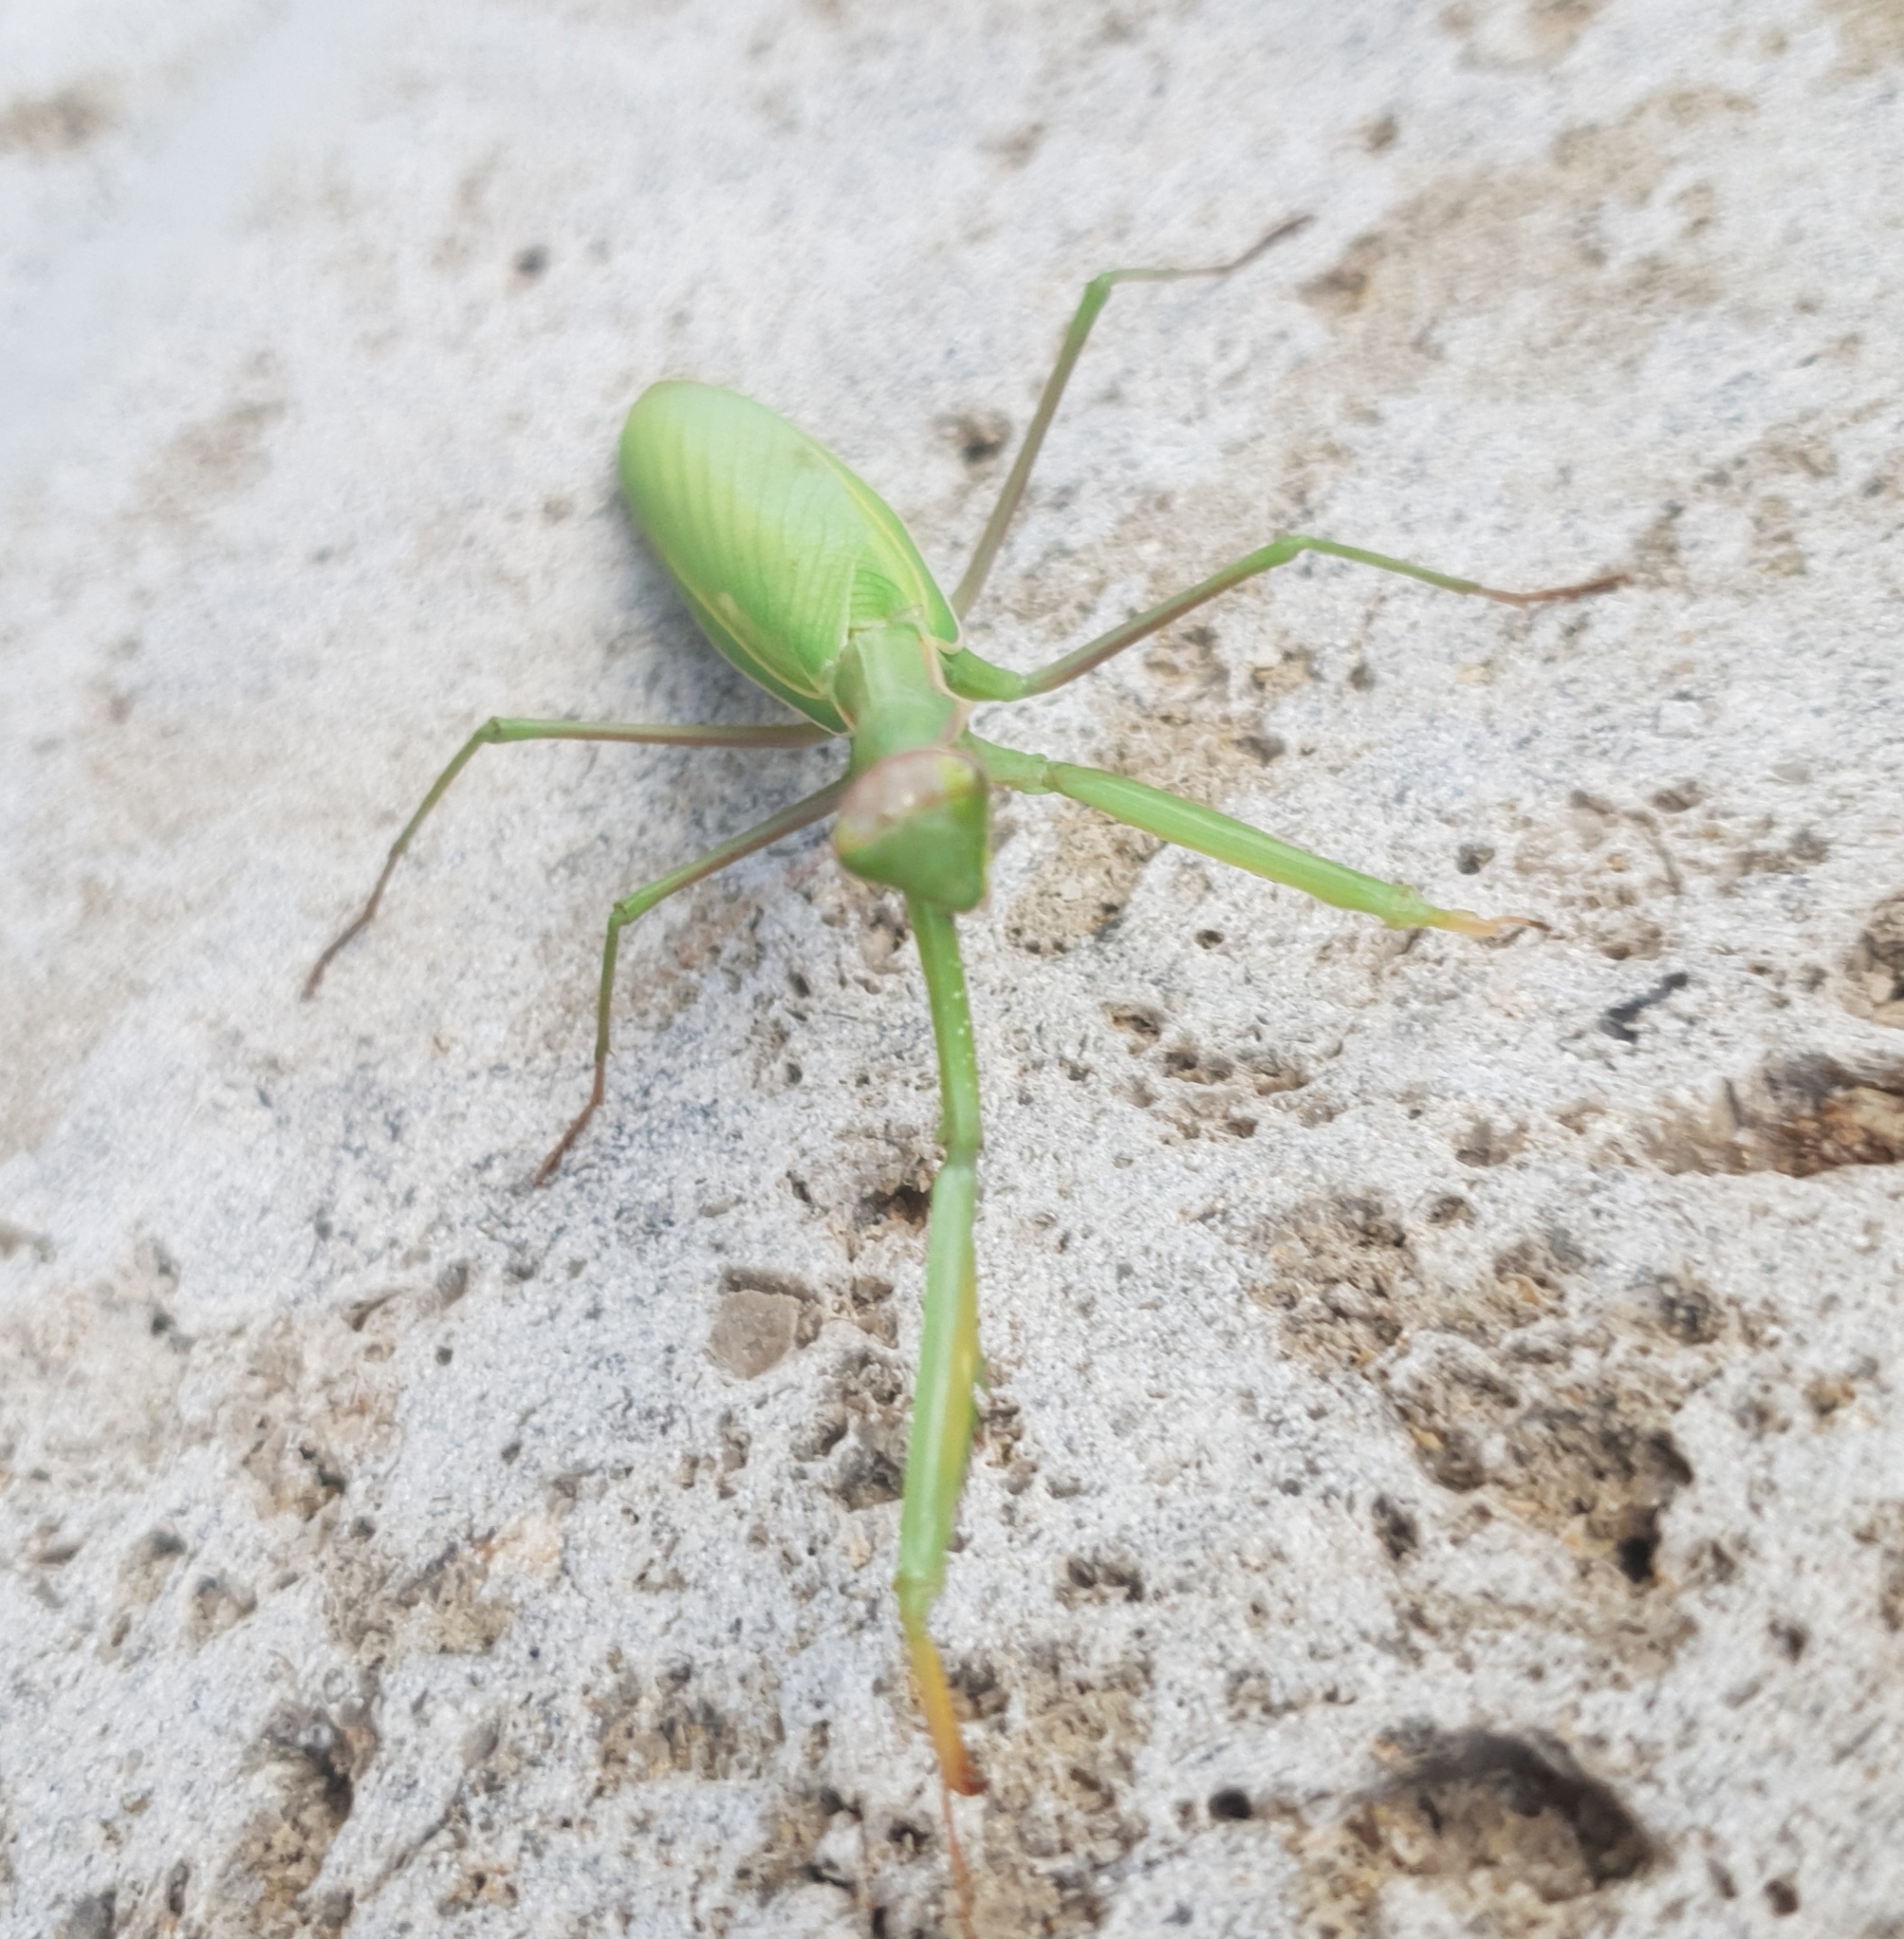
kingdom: Animalia
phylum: Arthropoda
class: Insecta
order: Mantodea
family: Mantidae
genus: Mantis
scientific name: Mantis religiosa
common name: Praying mantis
